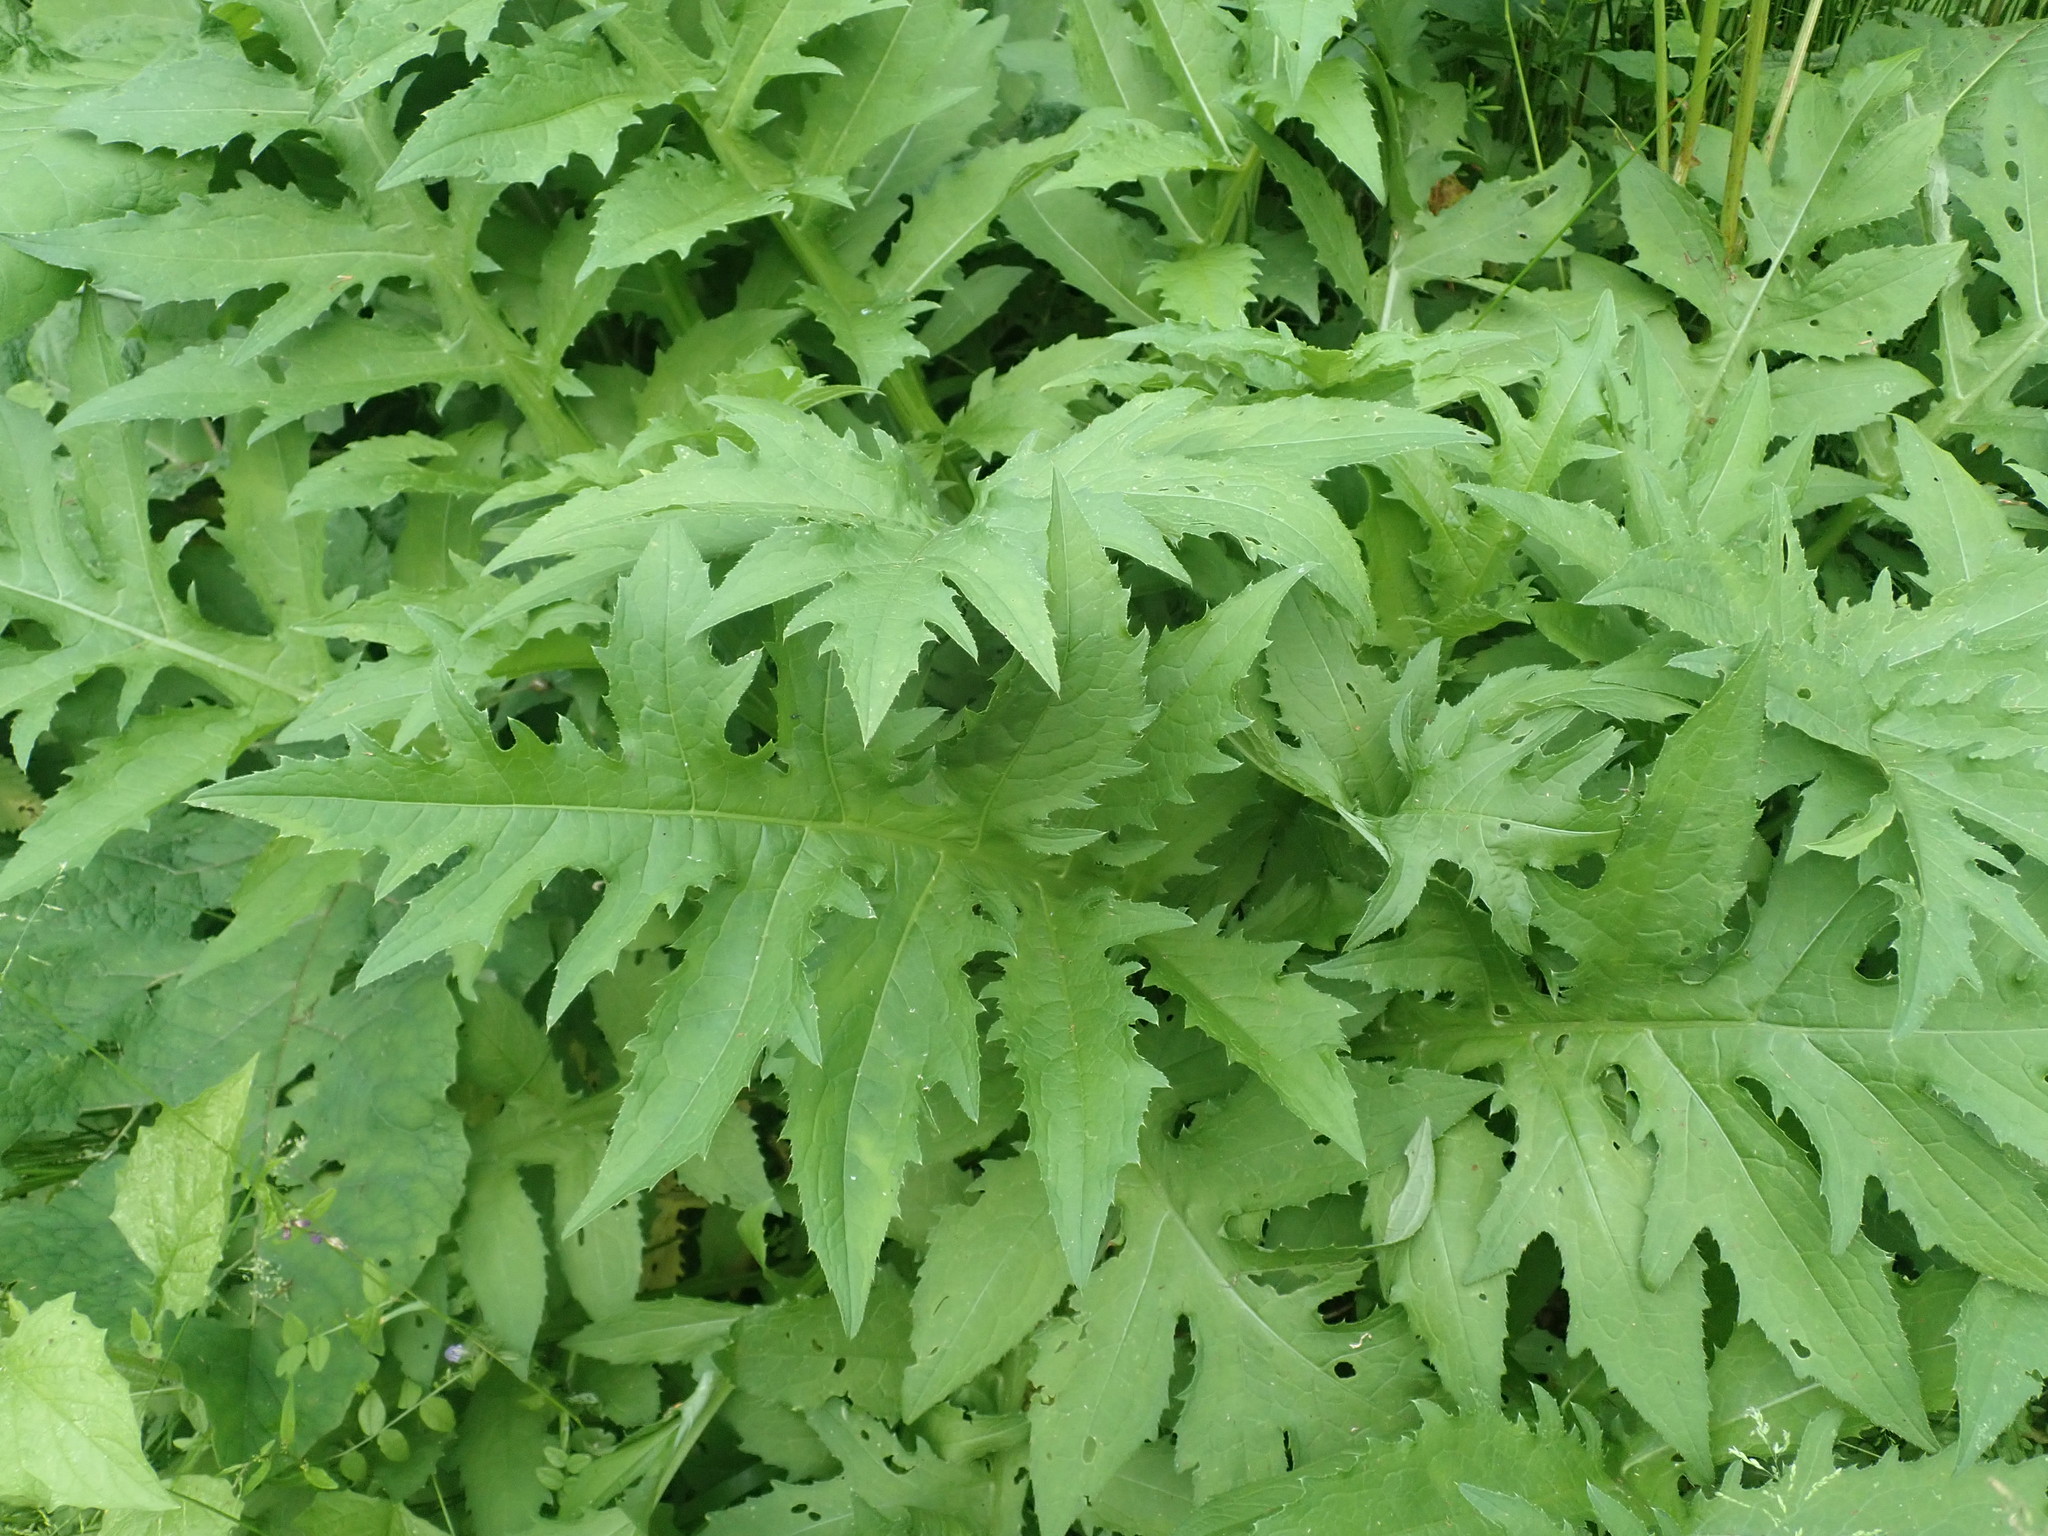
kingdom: Plantae
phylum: Tracheophyta
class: Magnoliopsida
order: Asterales
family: Asteraceae
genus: Cirsium
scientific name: Cirsium oleraceum
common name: Cabbage thistle
